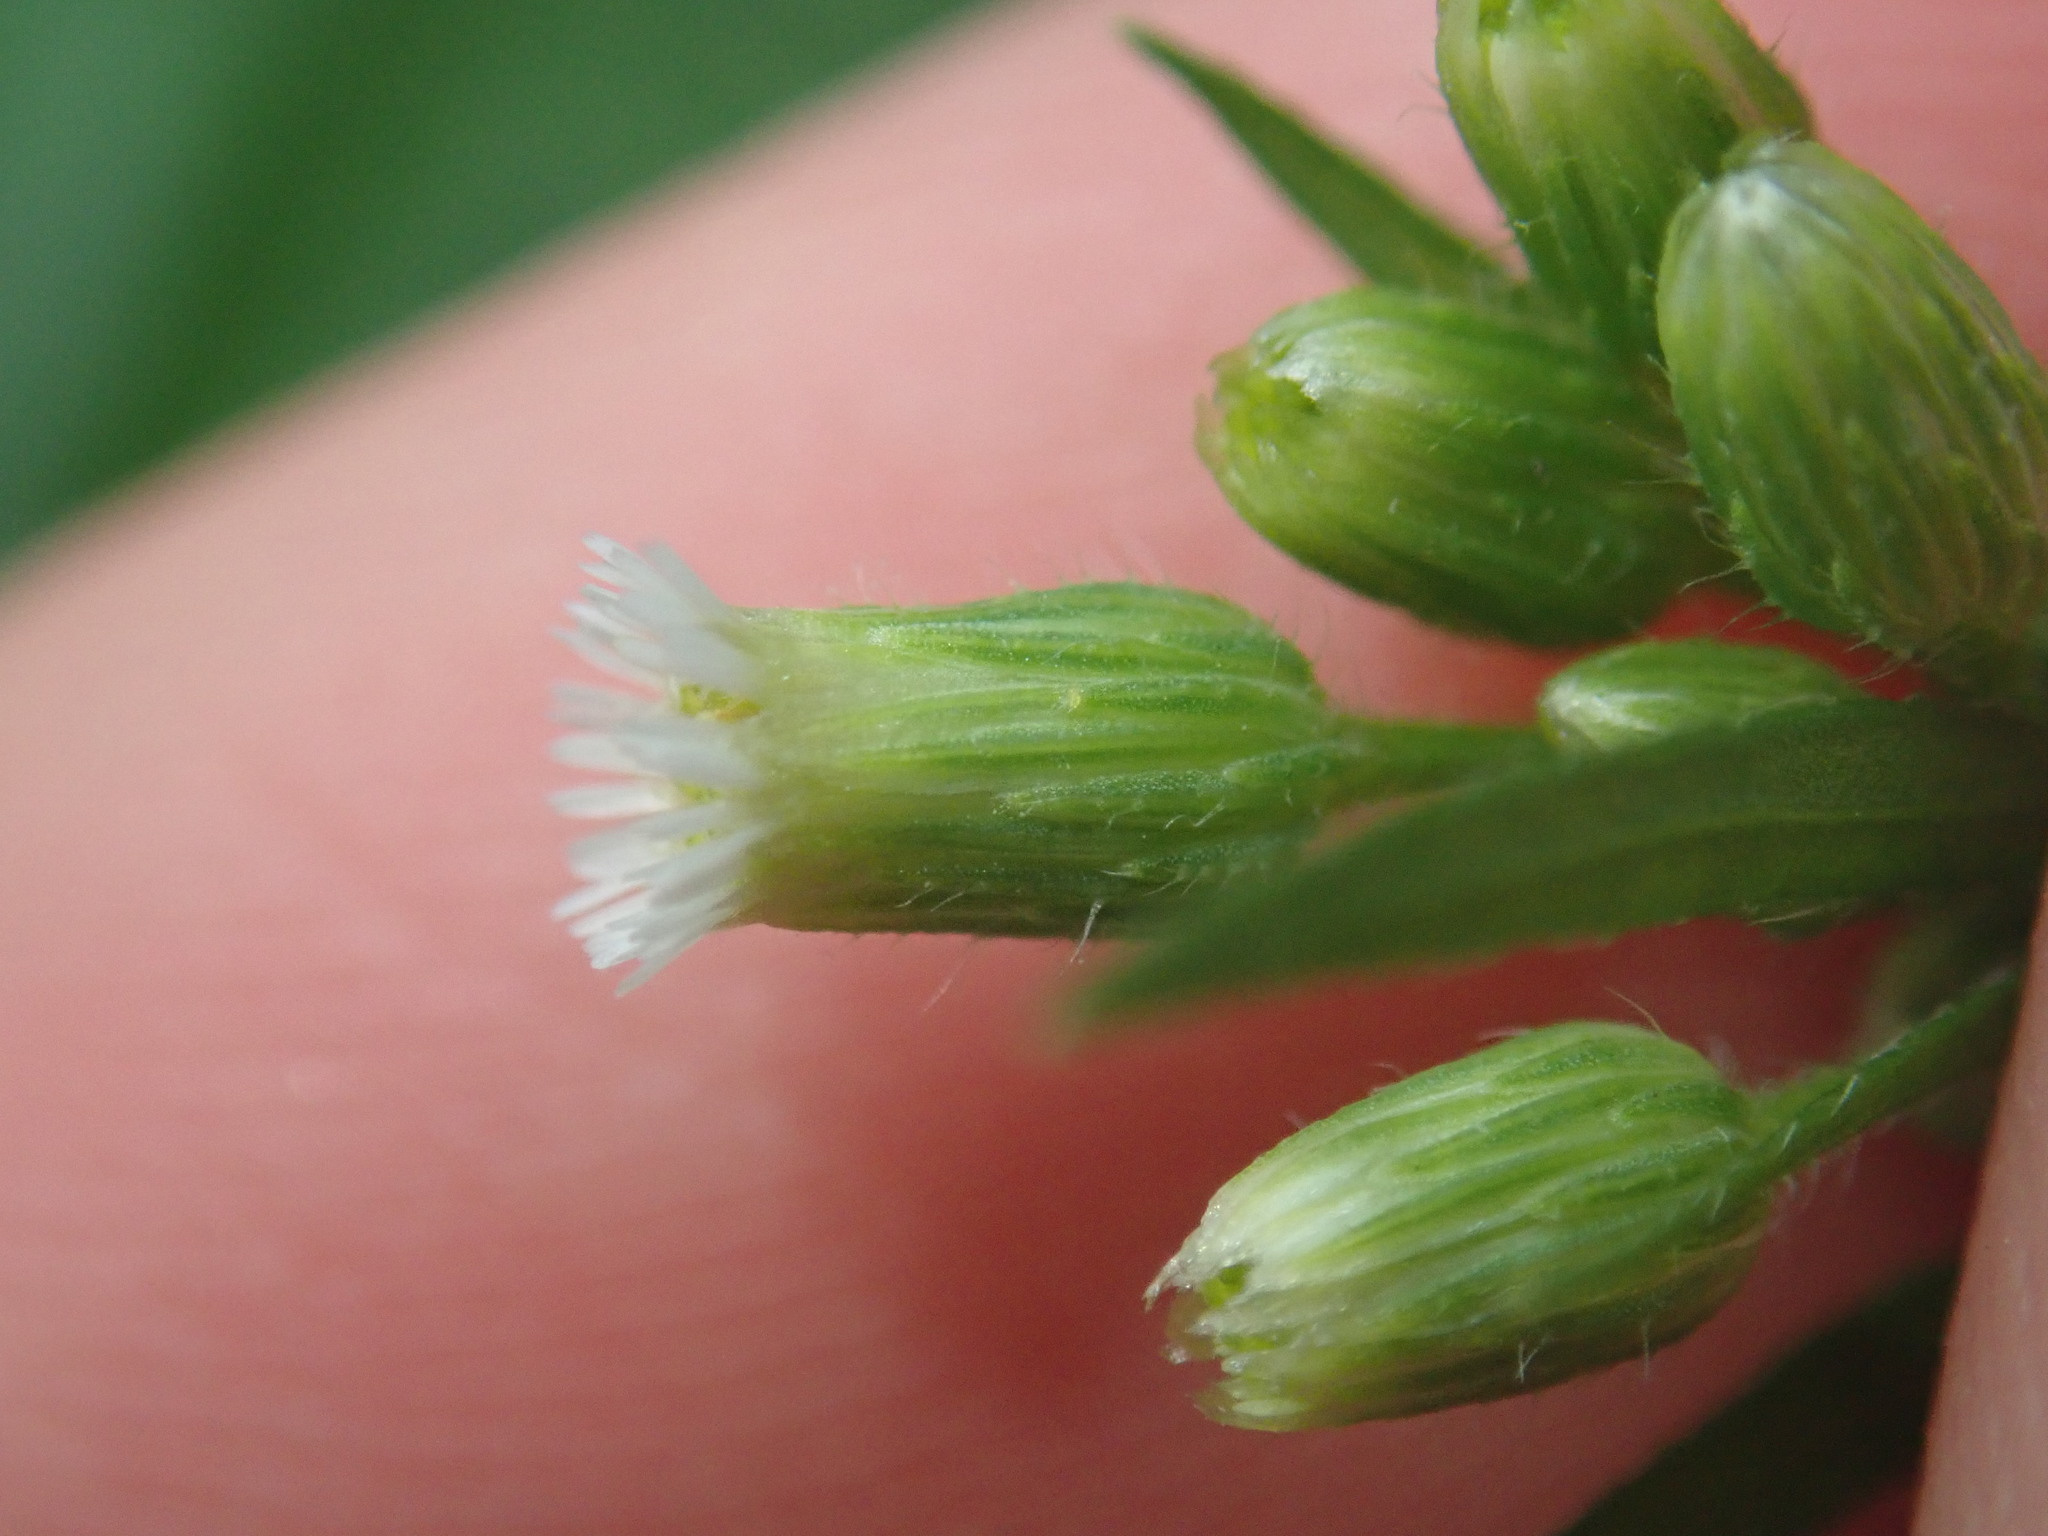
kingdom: Plantae
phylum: Tracheophyta
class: Magnoliopsida
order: Asterales
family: Asteraceae
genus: Erigeron
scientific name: Erigeron canadensis
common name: Canadian fleabane
